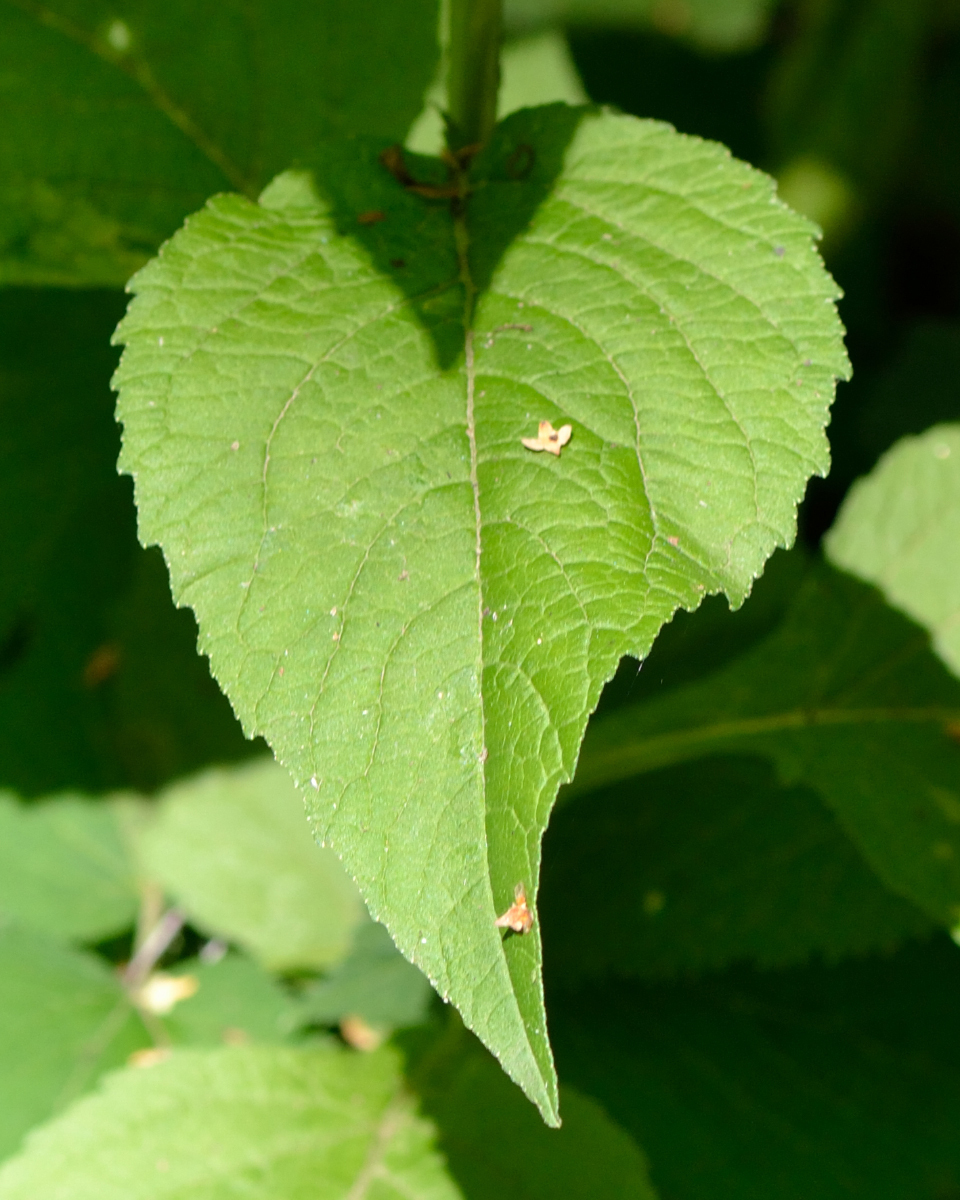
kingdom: Plantae
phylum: Tracheophyta
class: Magnoliopsida
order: Asterales
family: Campanulaceae
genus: Campanula
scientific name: Campanula latifolia
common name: Giant bellflower
